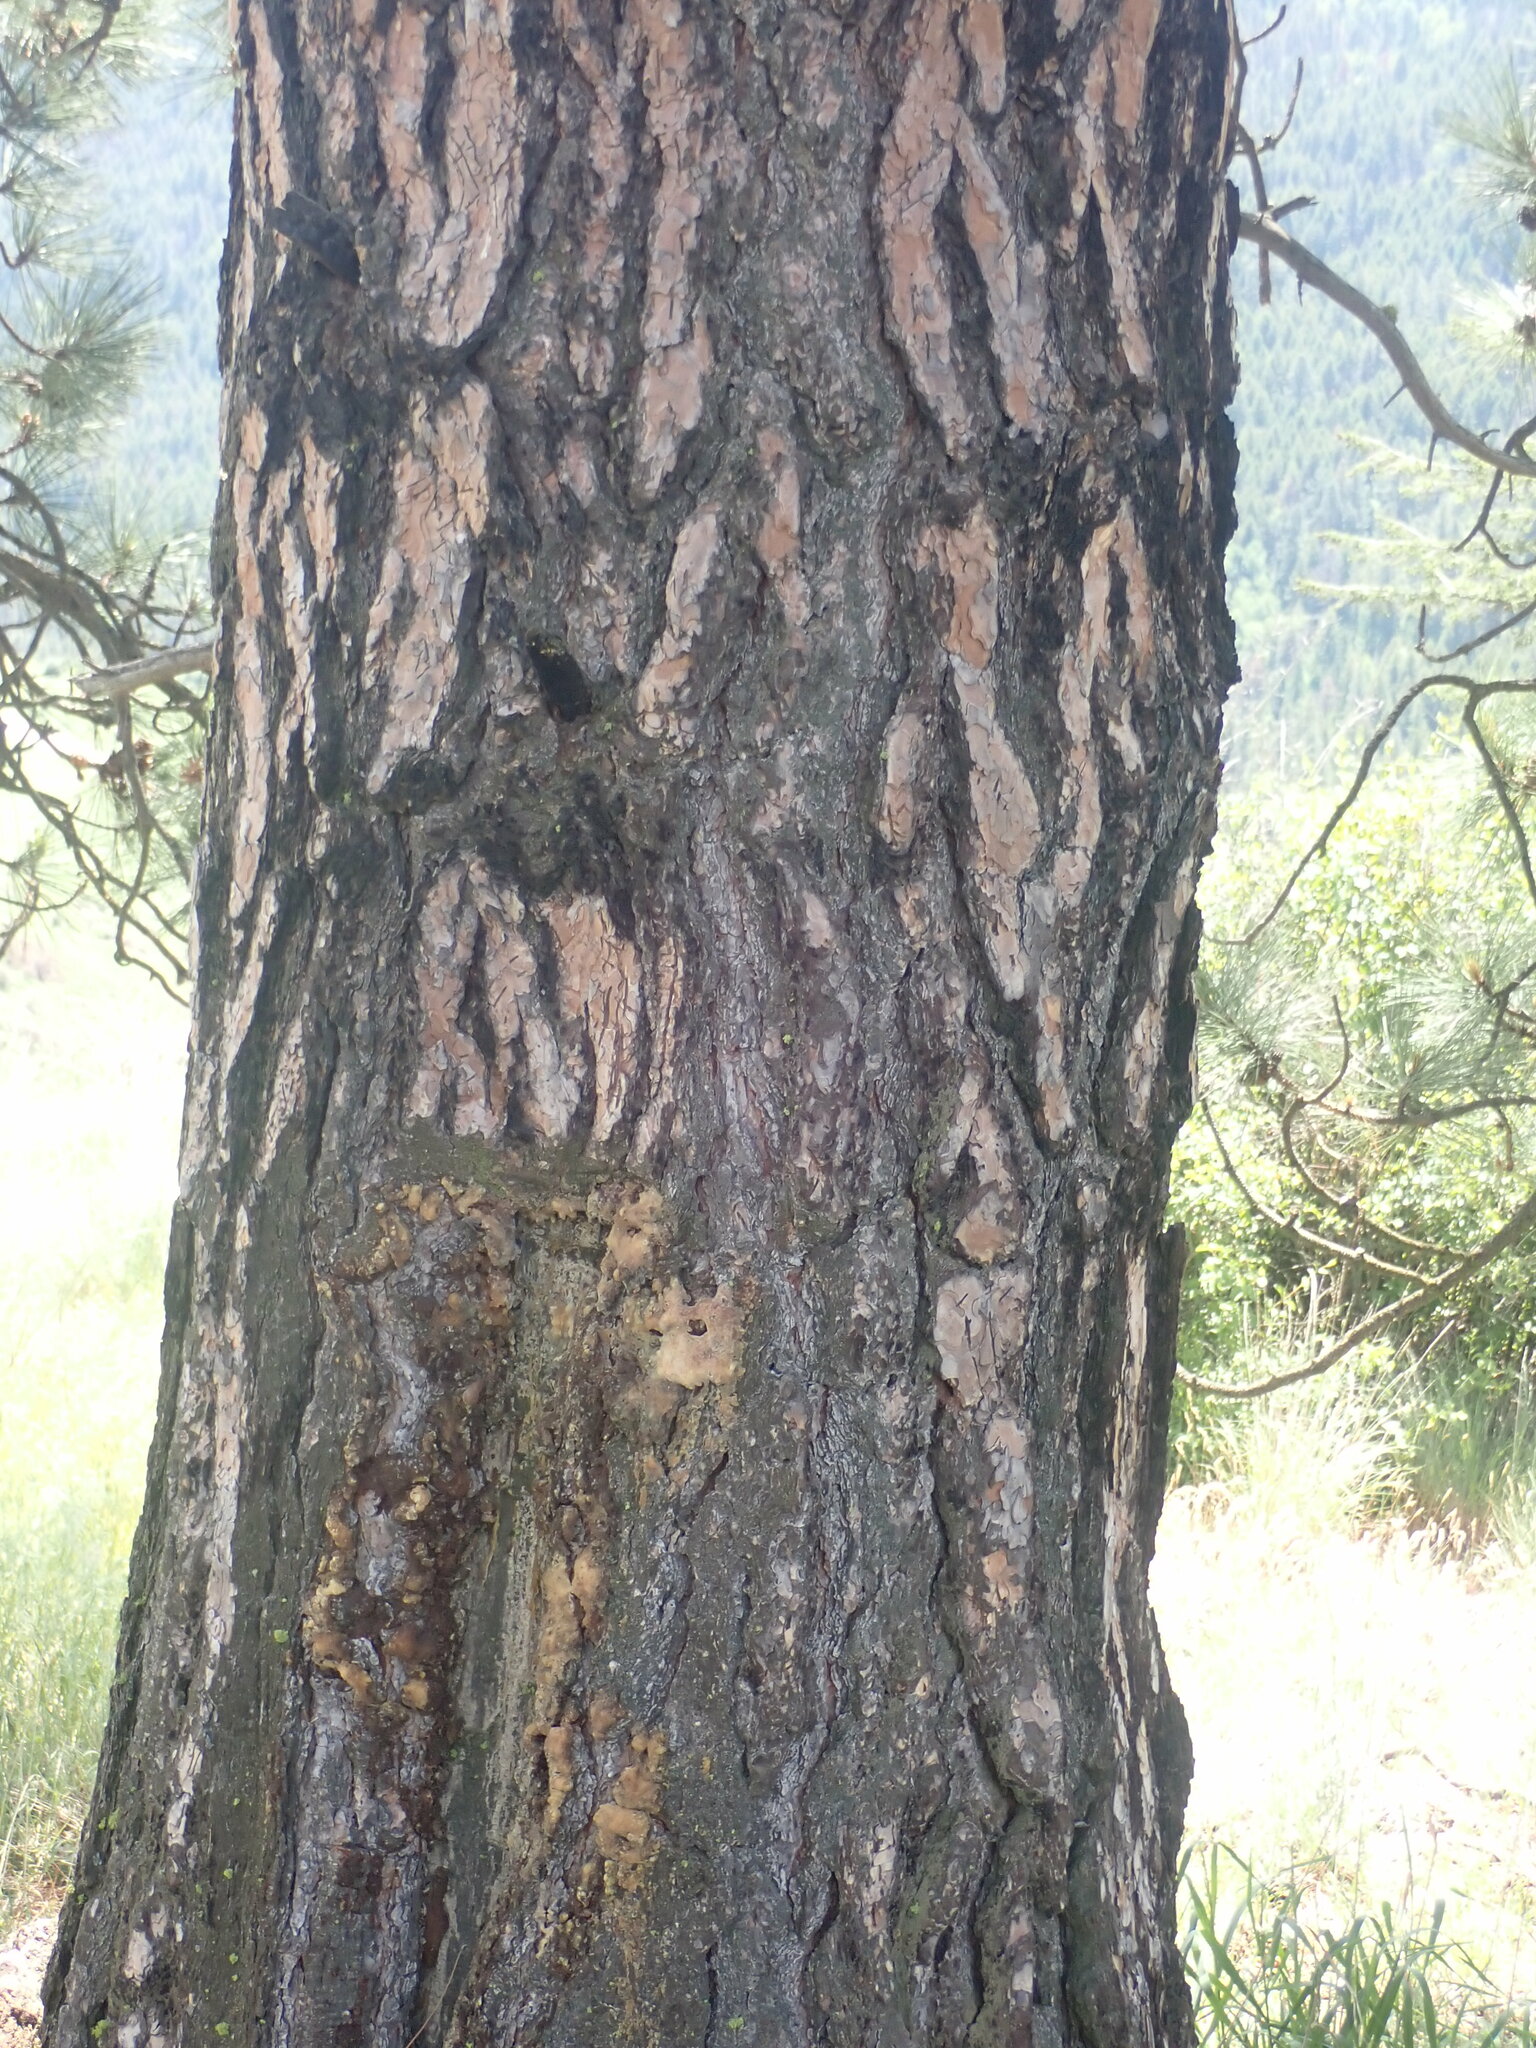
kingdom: Plantae
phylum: Tracheophyta
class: Pinopsida
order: Pinales
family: Pinaceae
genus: Pinus
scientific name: Pinus ponderosa
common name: Western yellow-pine
